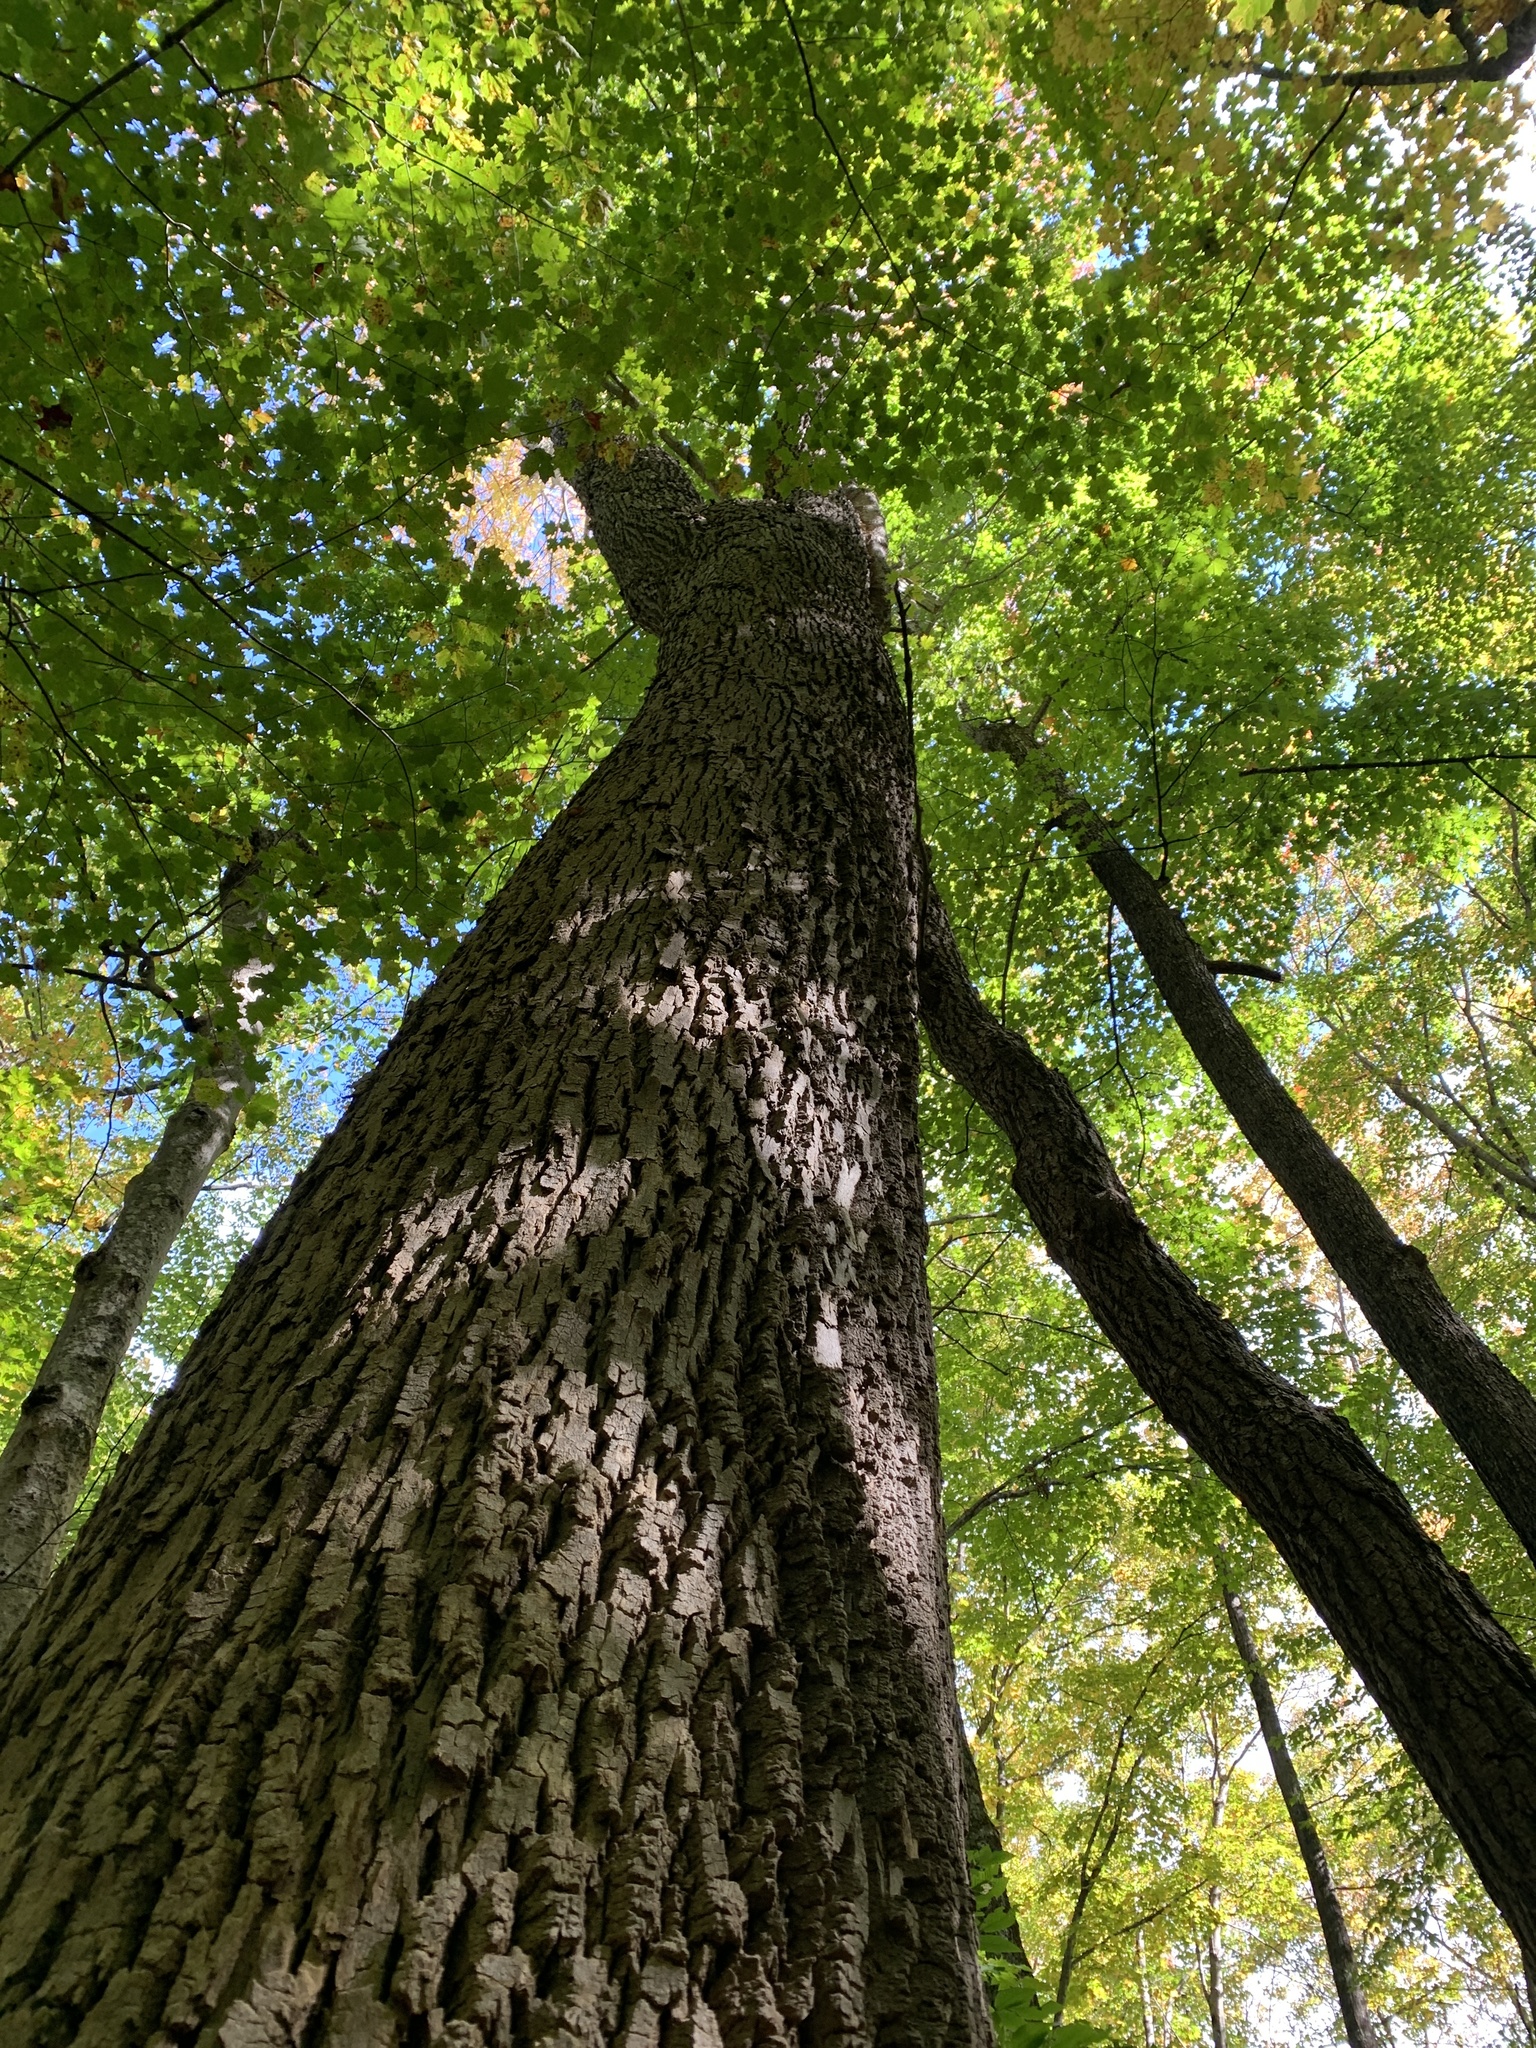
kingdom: Plantae
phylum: Tracheophyta
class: Magnoliopsida
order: Lamiales
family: Oleaceae
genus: Fraxinus
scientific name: Fraxinus americana
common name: White ash
